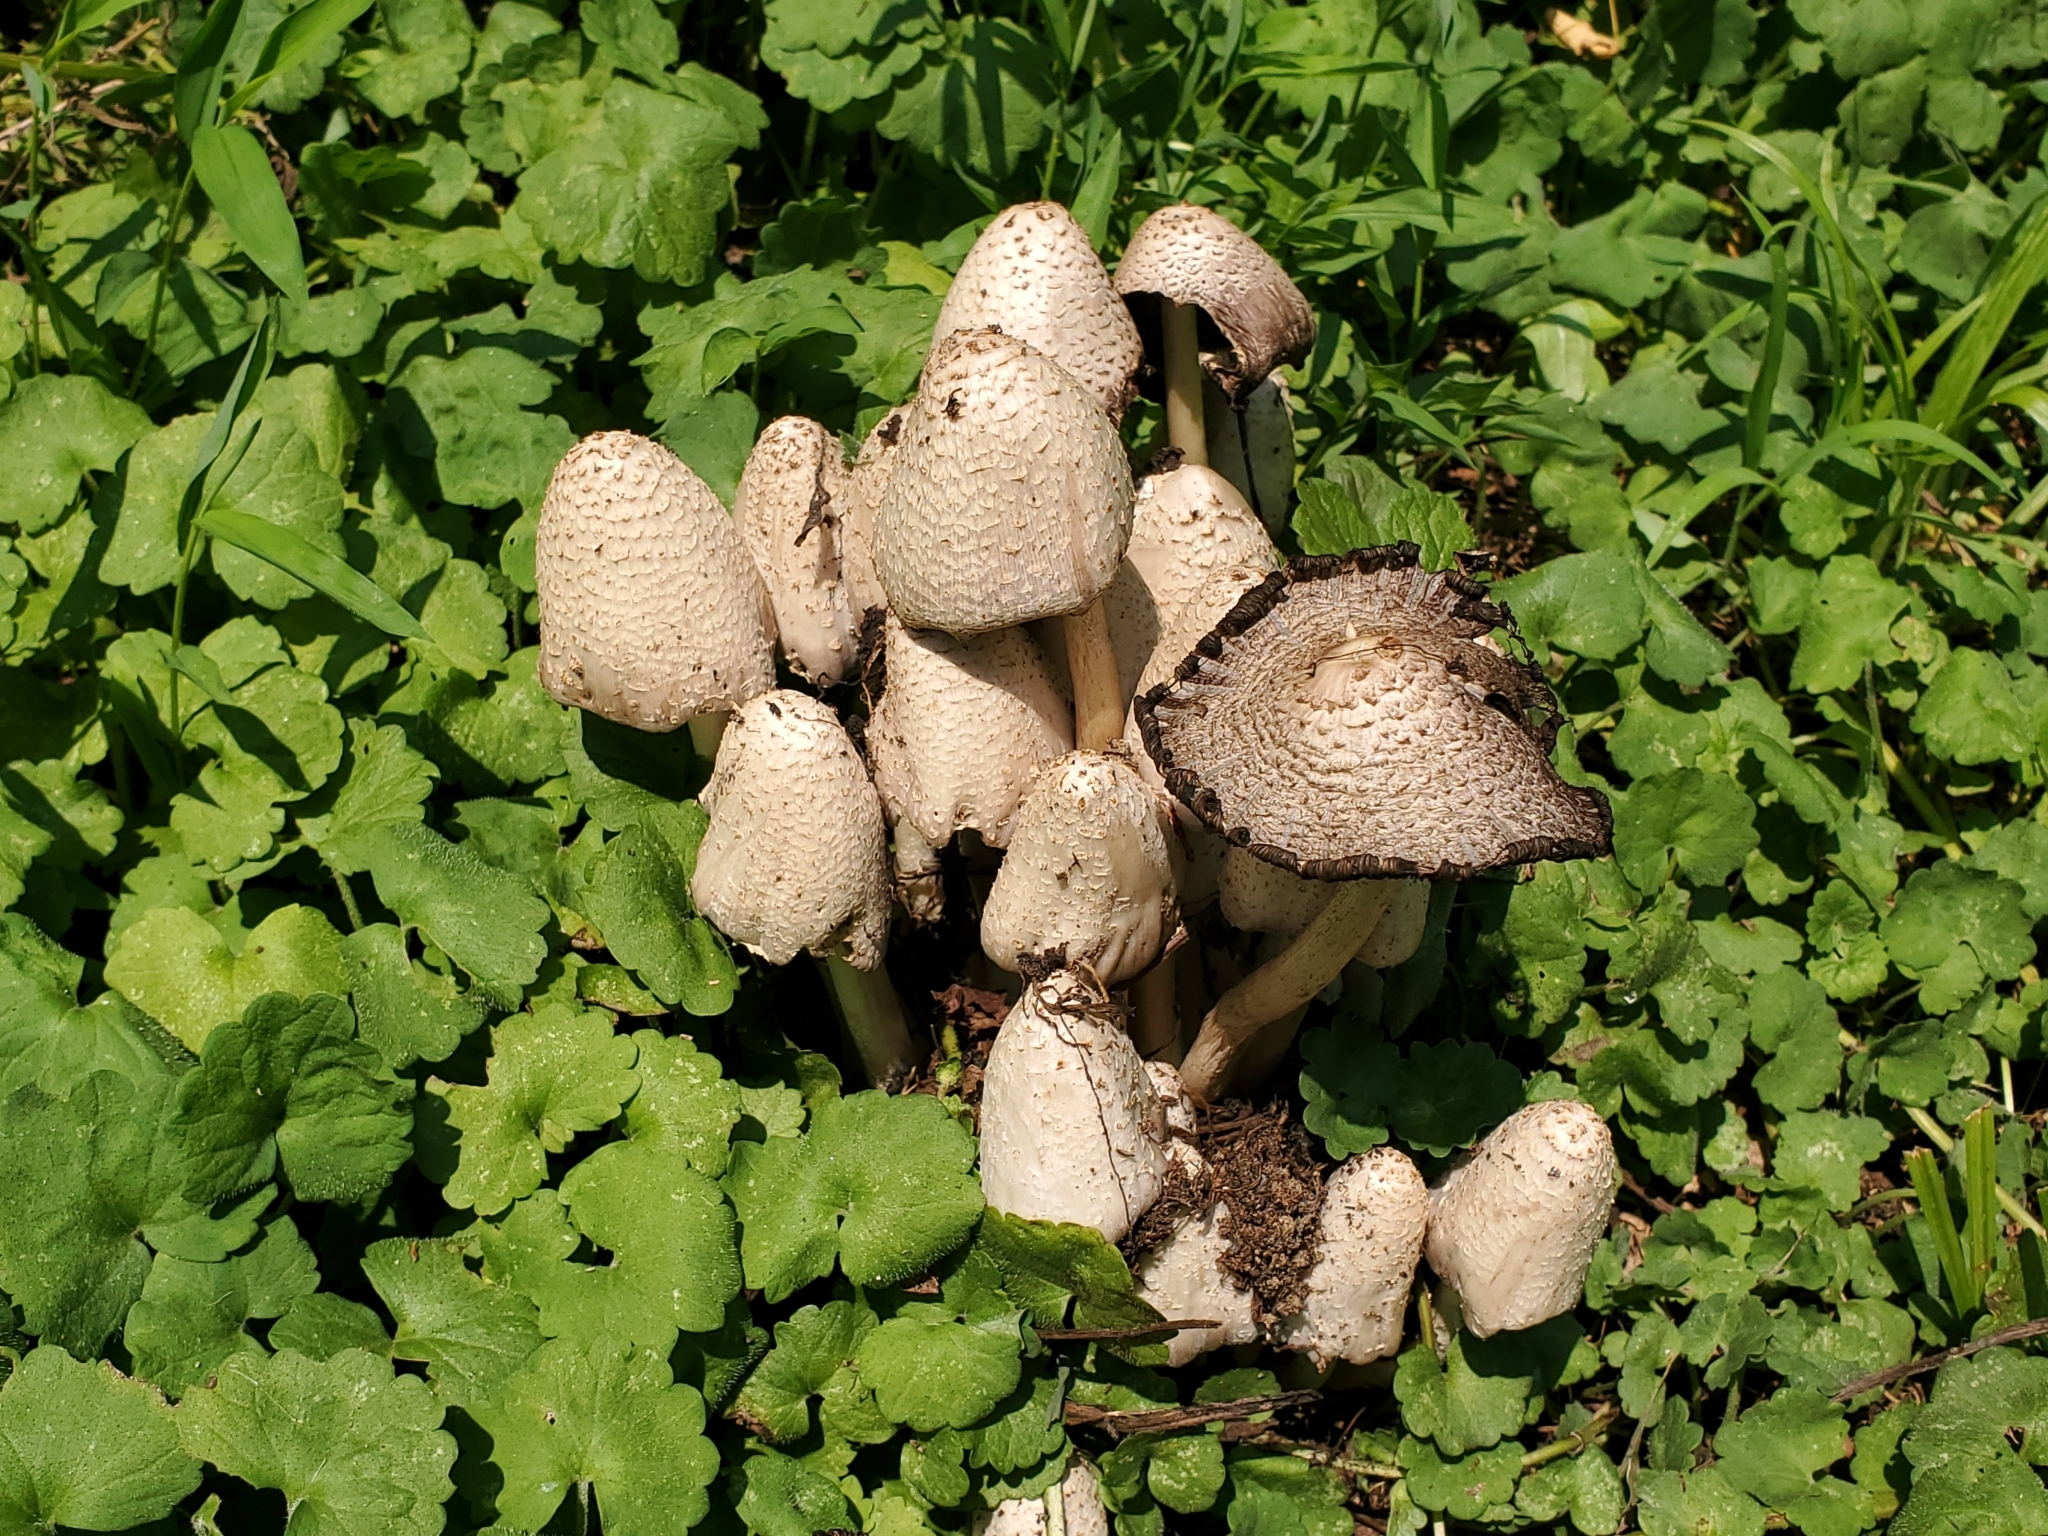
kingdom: Fungi
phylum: Basidiomycota
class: Agaricomycetes
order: Agaricales
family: Psathyrellaceae
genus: Coprinopsis
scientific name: Coprinopsis variegata
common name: Scaly ink cap
